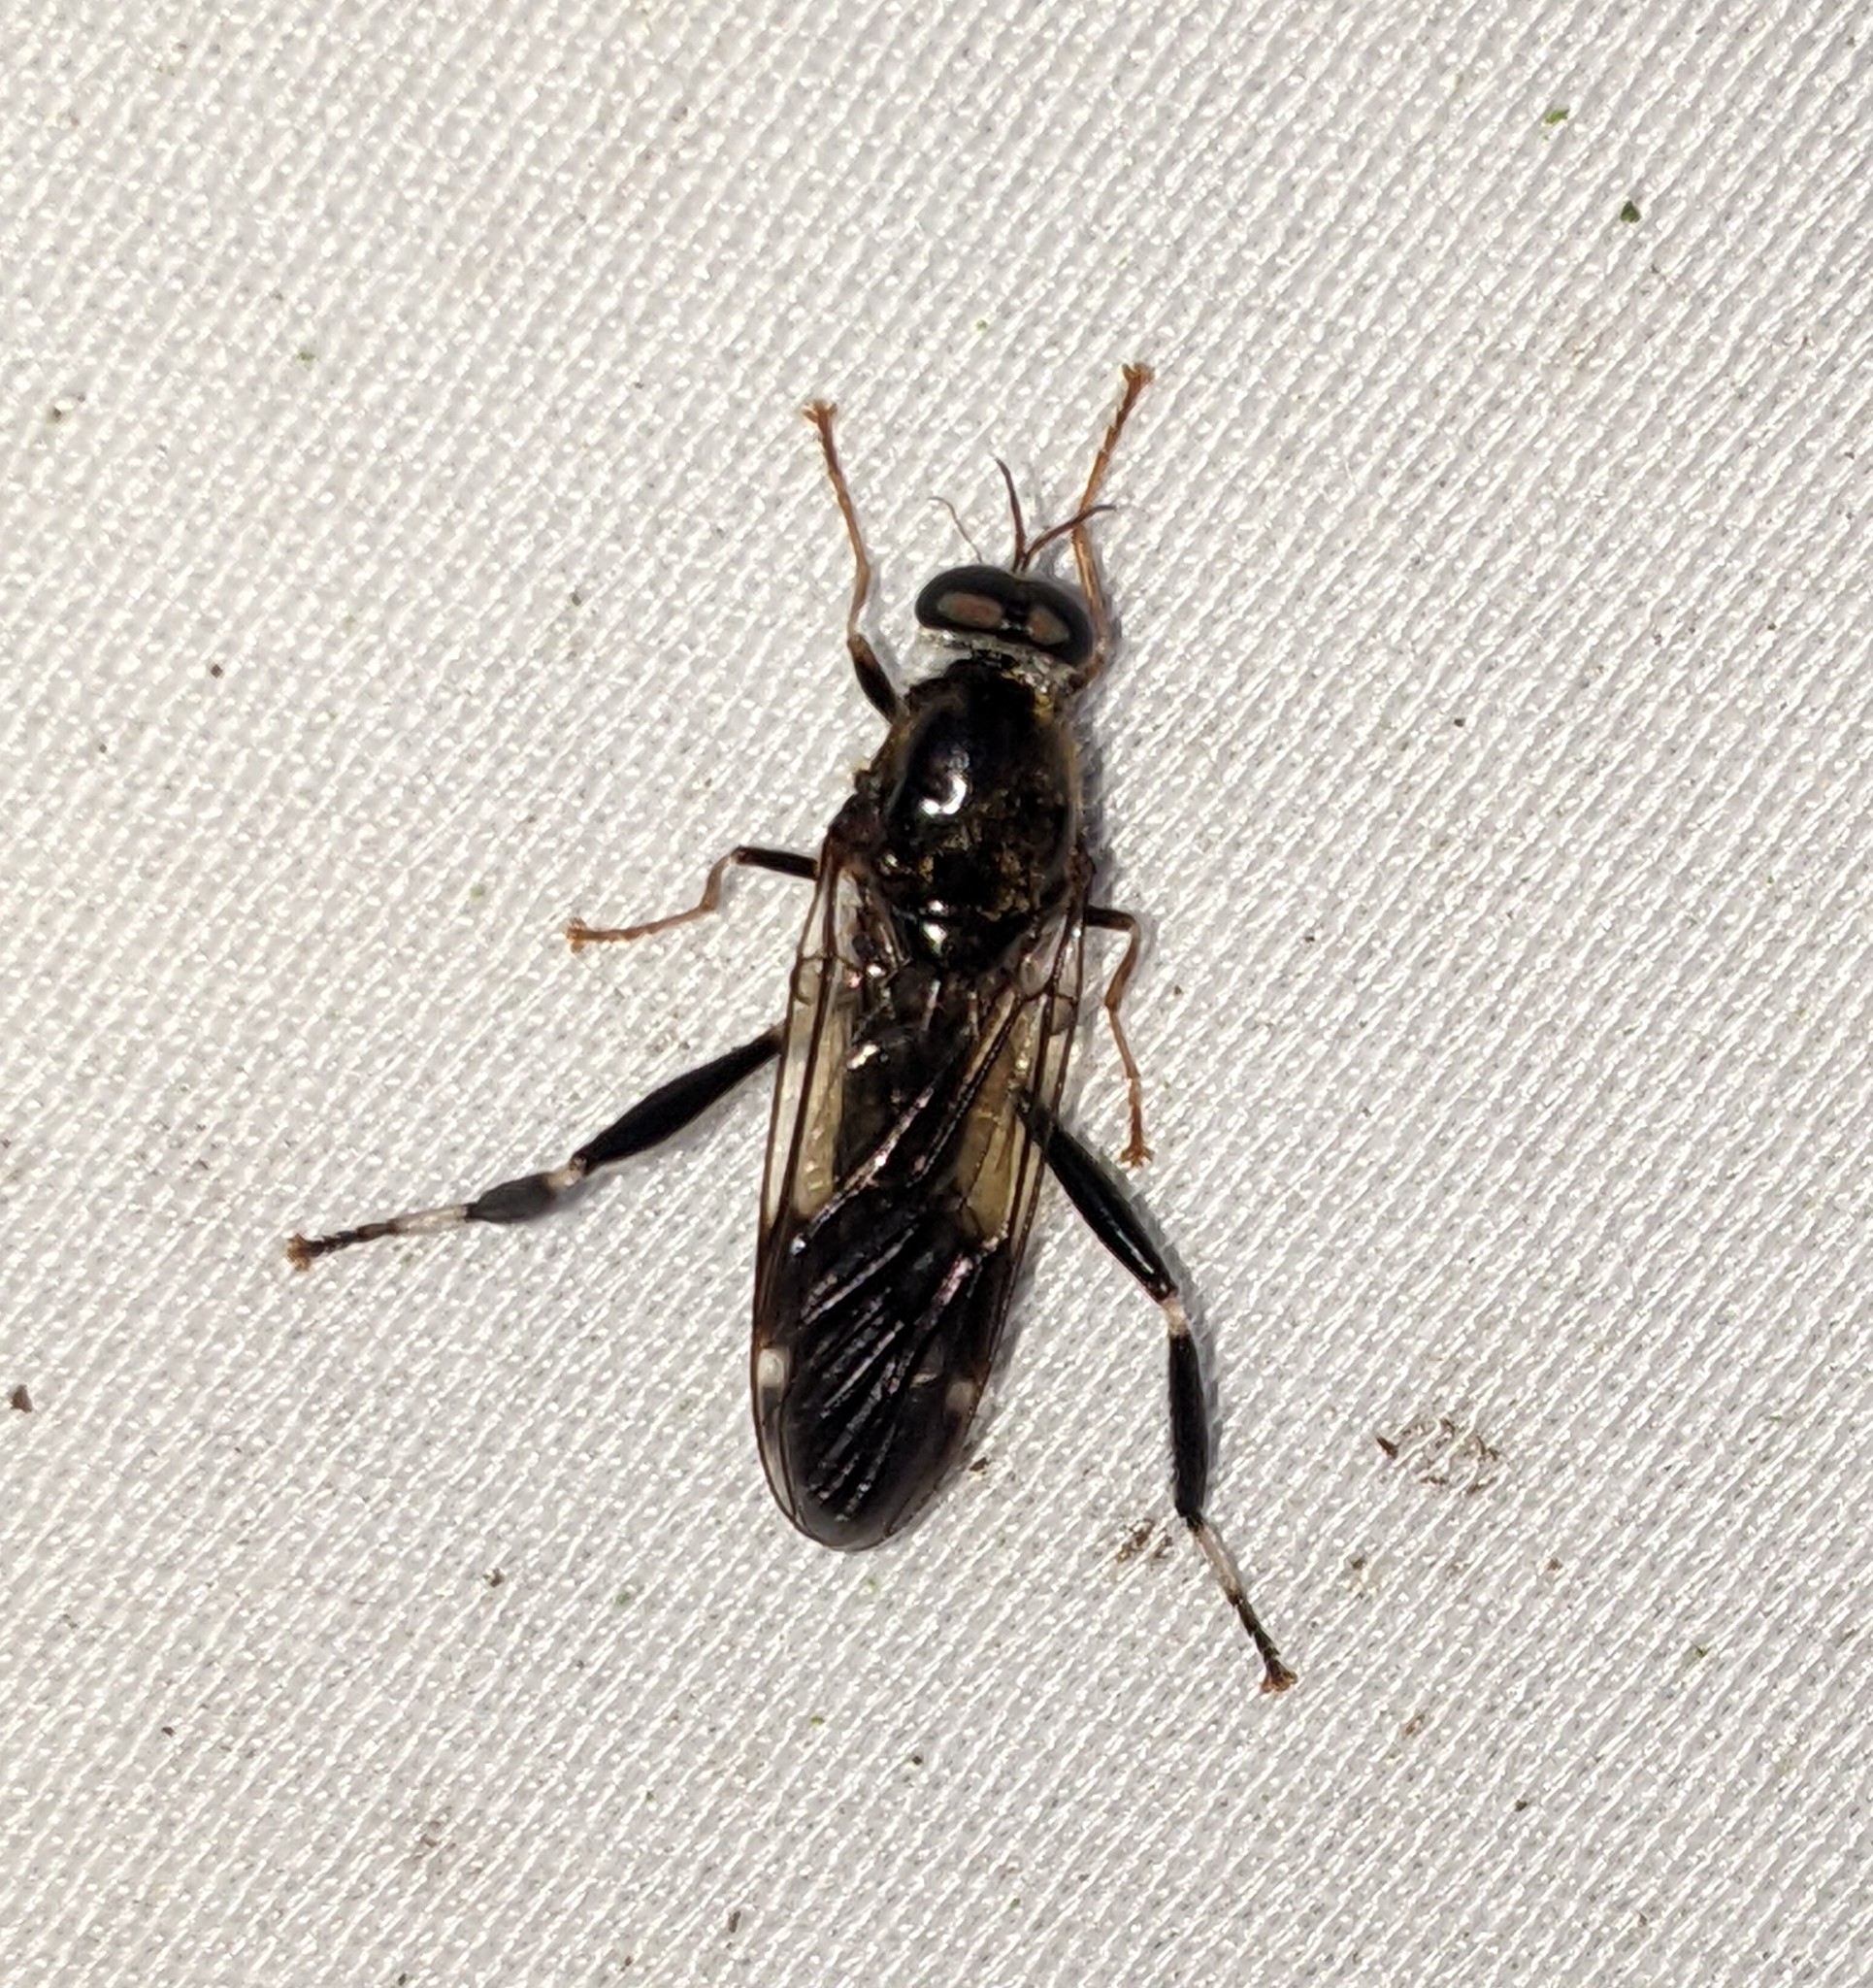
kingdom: Animalia
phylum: Arthropoda
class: Insecta
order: Diptera
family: Stratiomyidae
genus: Exaireta
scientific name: Exaireta spinigera
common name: Blue soldier fly
